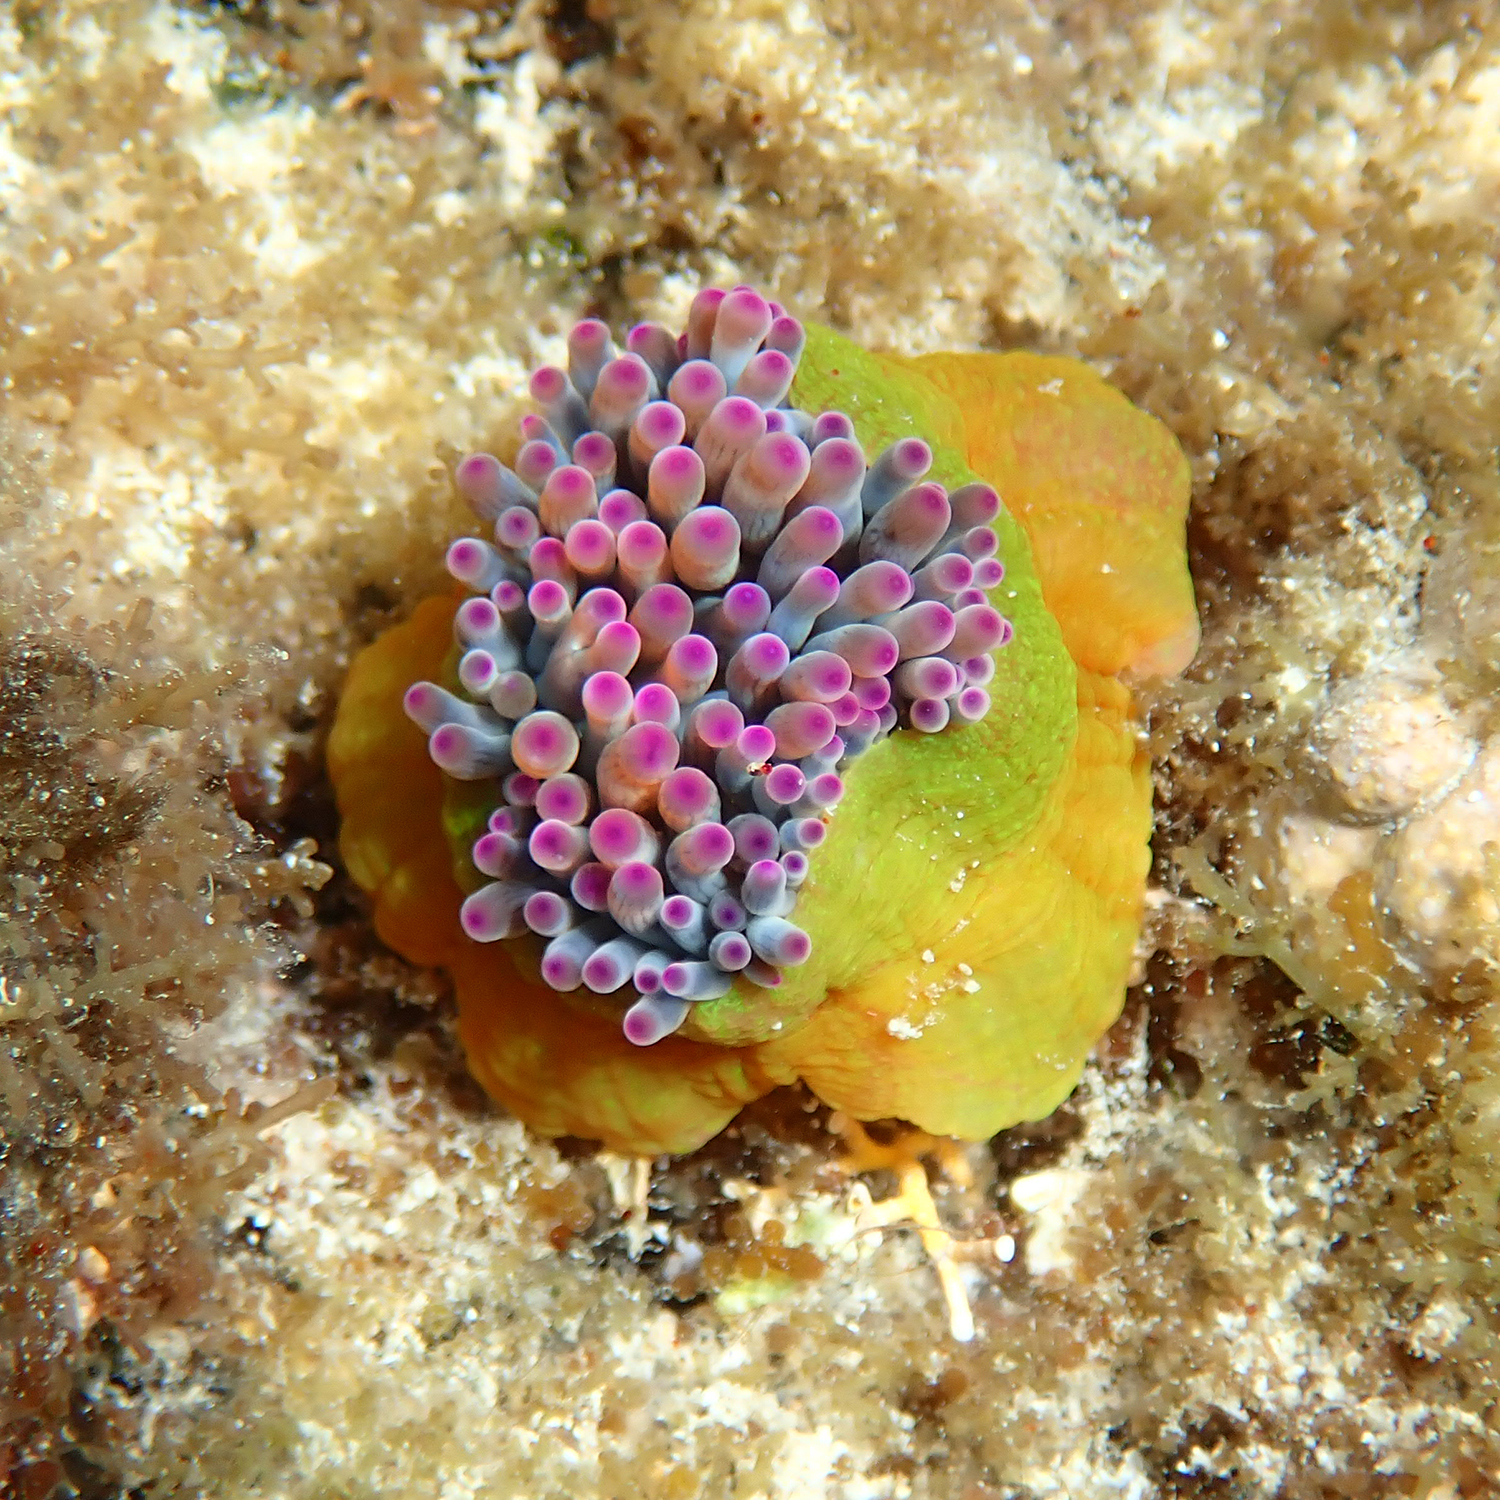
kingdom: Animalia
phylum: Cnidaria
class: Anthozoa
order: Actiniaria
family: Actiniidae
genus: Entacmaea
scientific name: Entacmaea quadricolor
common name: Bulb tentacle sea anemone
